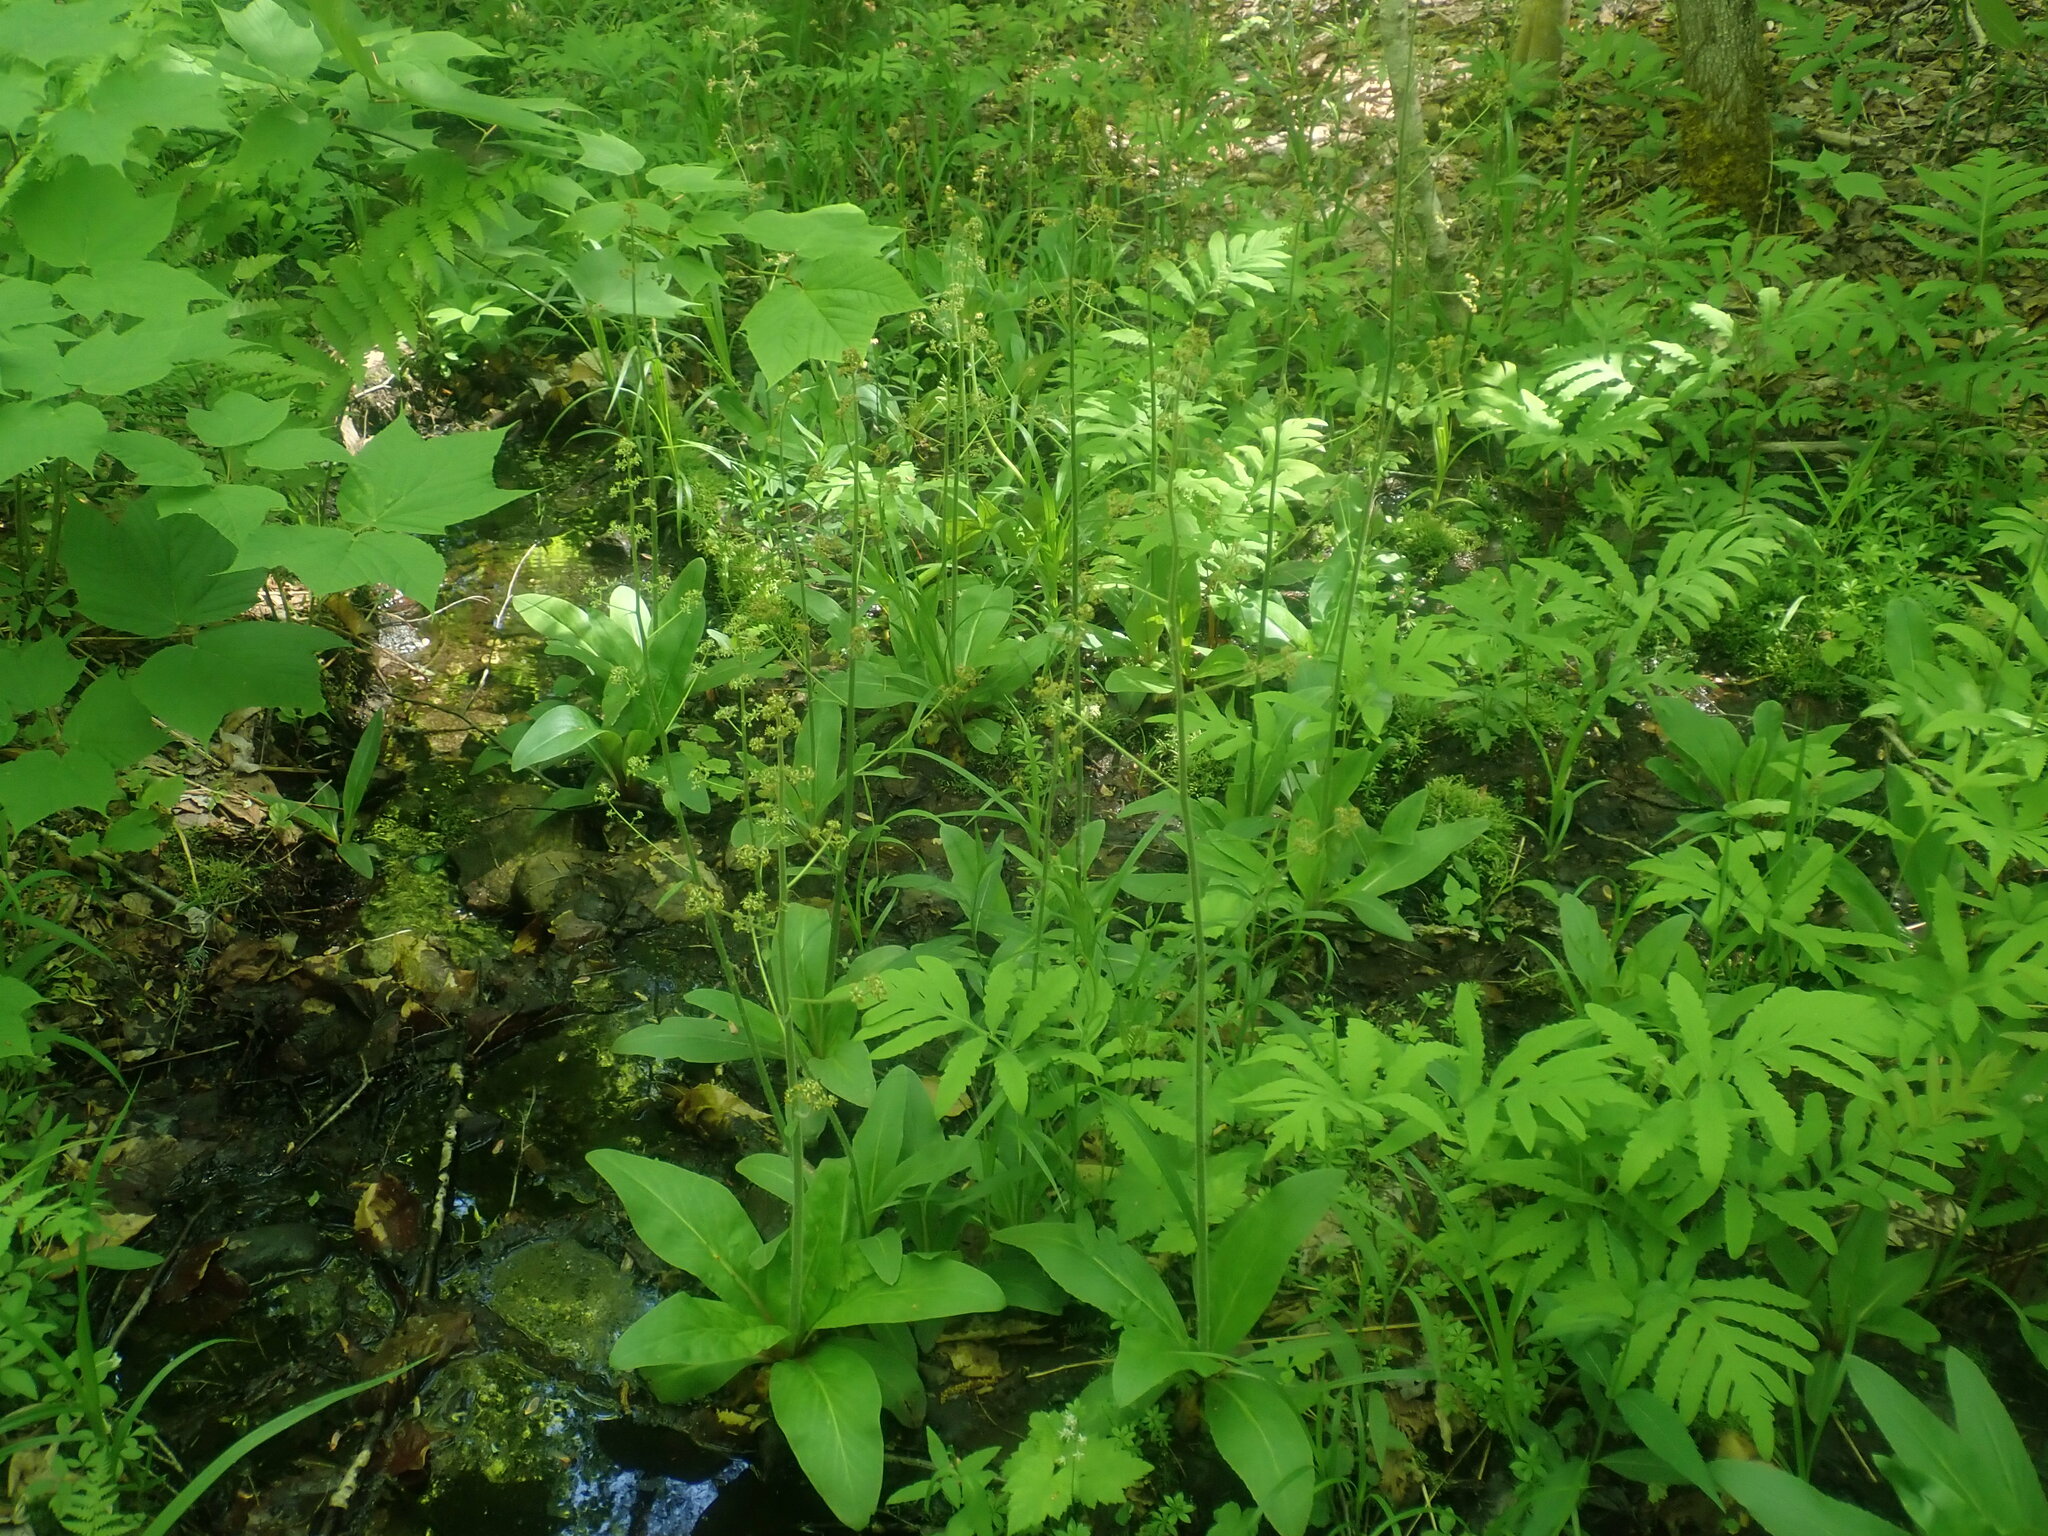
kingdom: Plantae
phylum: Tracheophyta
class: Magnoliopsida
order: Saxifragales
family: Saxifragaceae
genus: Micranthes
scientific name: Micranthes pensylvanica
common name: Marsh saxifrage
